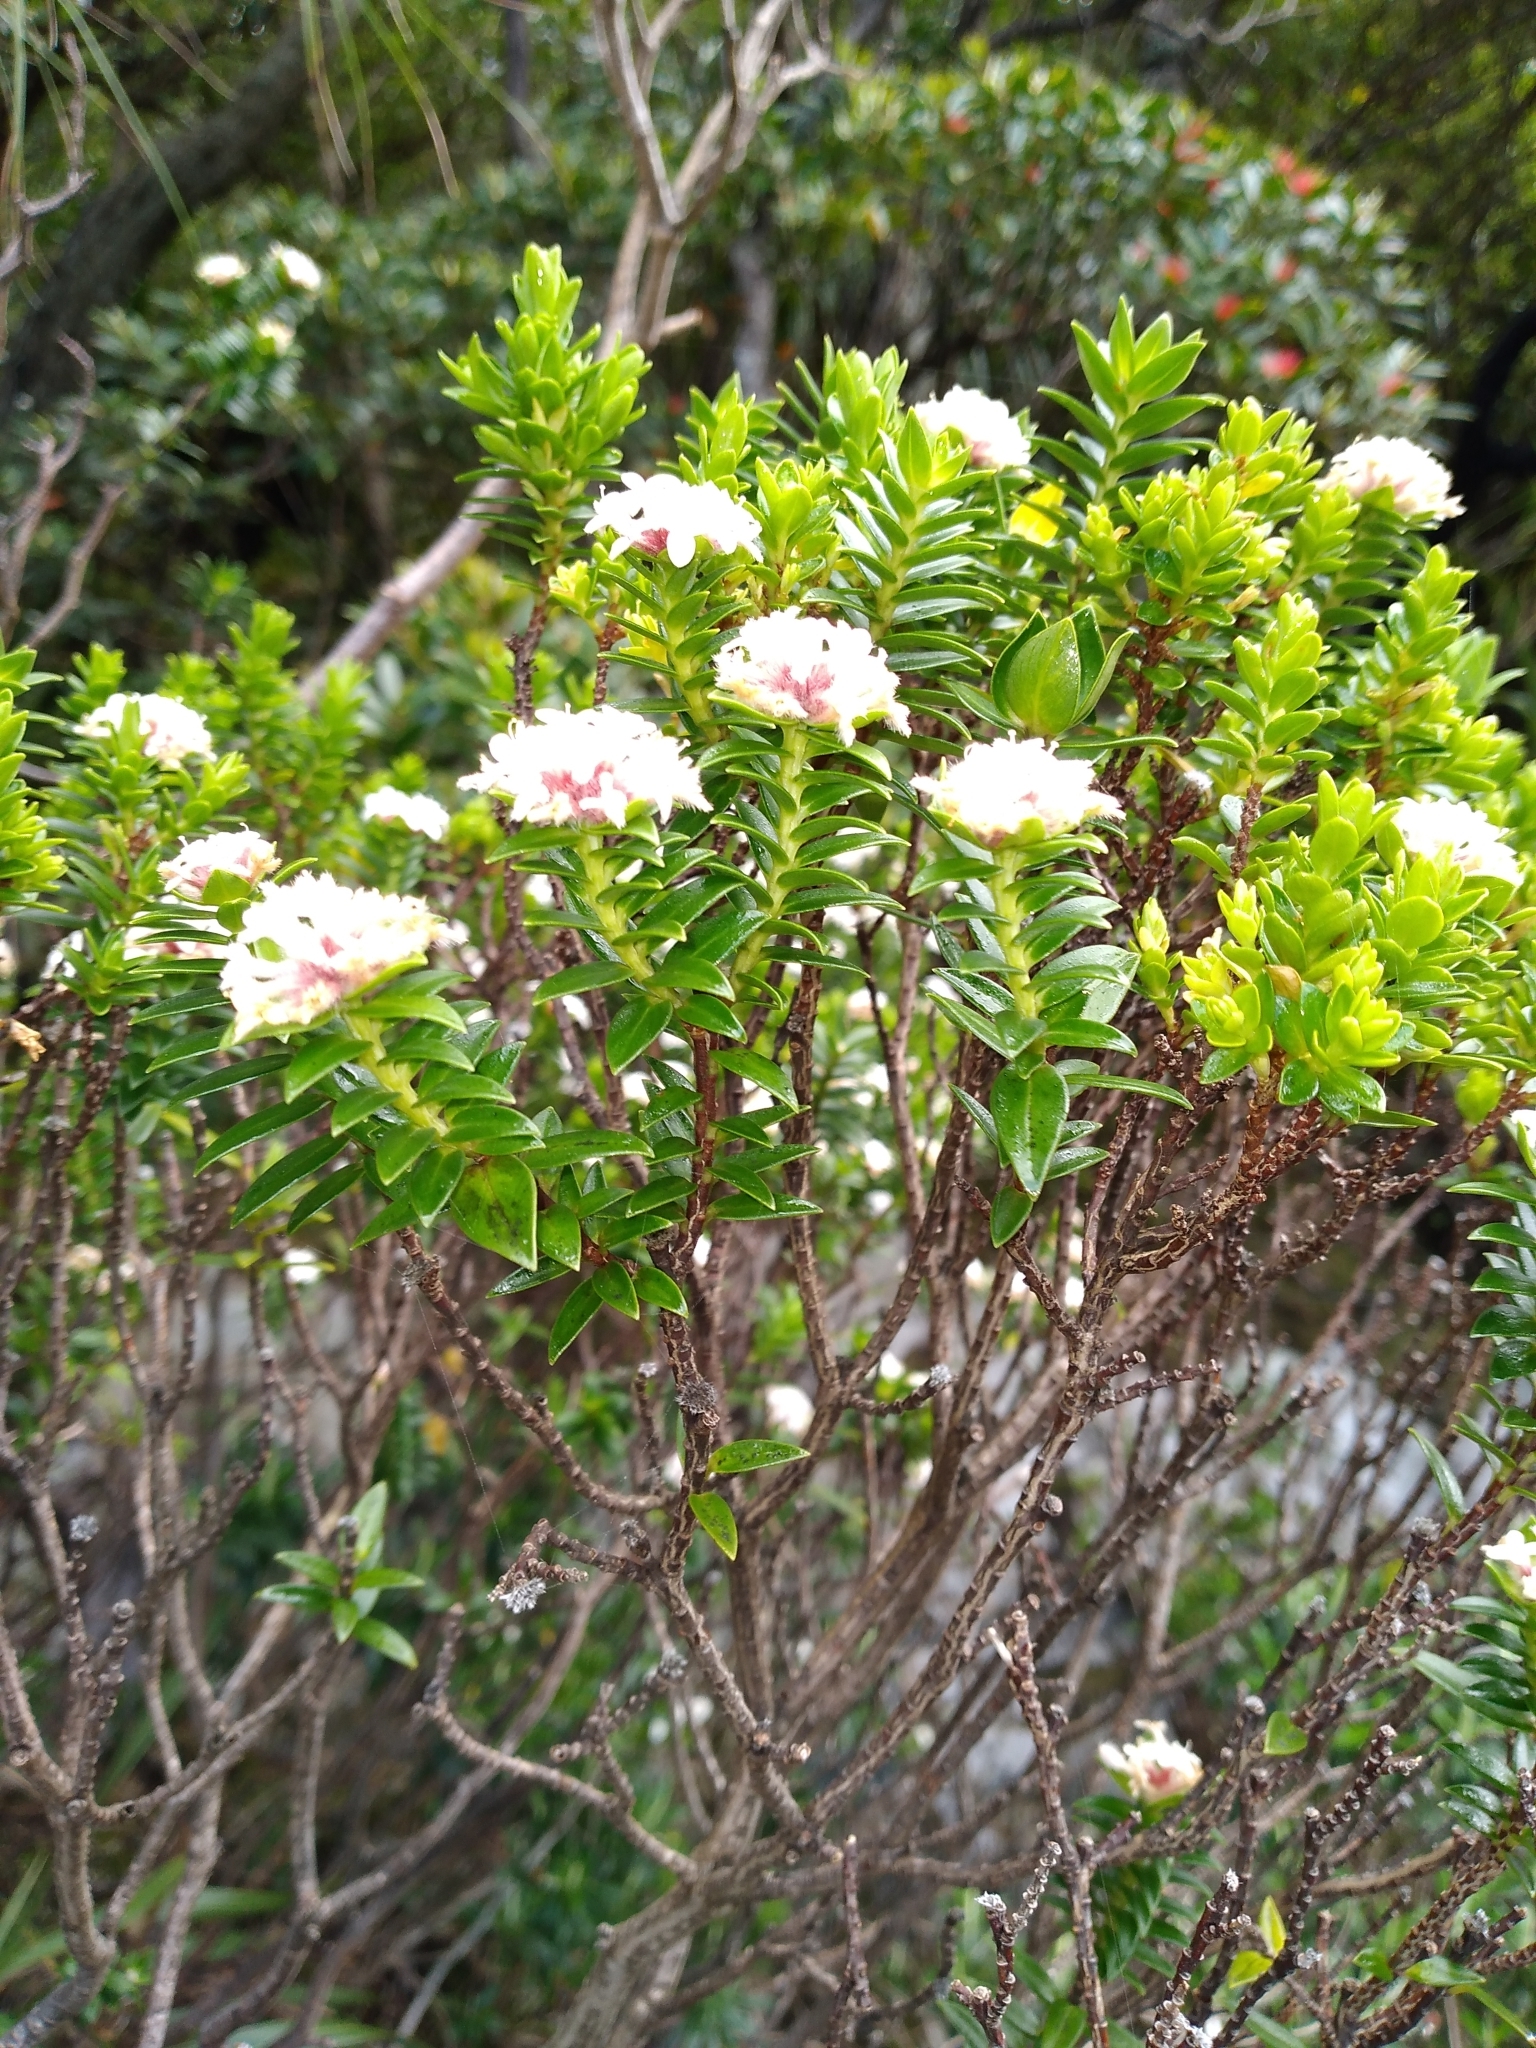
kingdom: Plantae
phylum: Tracheophyta
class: Magnoliopsida
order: Malvales
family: Thymelaeaceae
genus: Pimelea
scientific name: Pimelea gnidia
